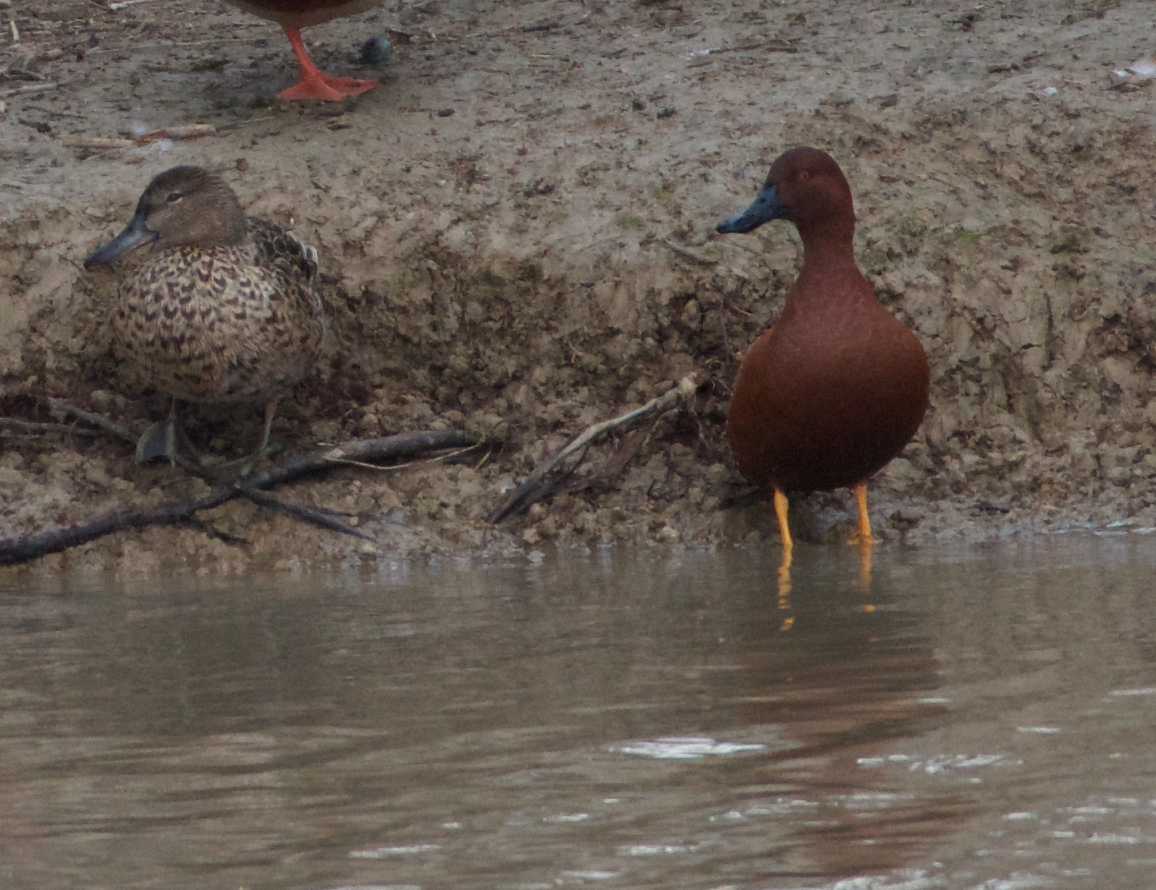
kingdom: Animalia
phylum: Chordata
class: Aves
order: Anseriformes
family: Anatidae
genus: Spatula
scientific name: Spatula cyanoptera
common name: Cinnamon teal
